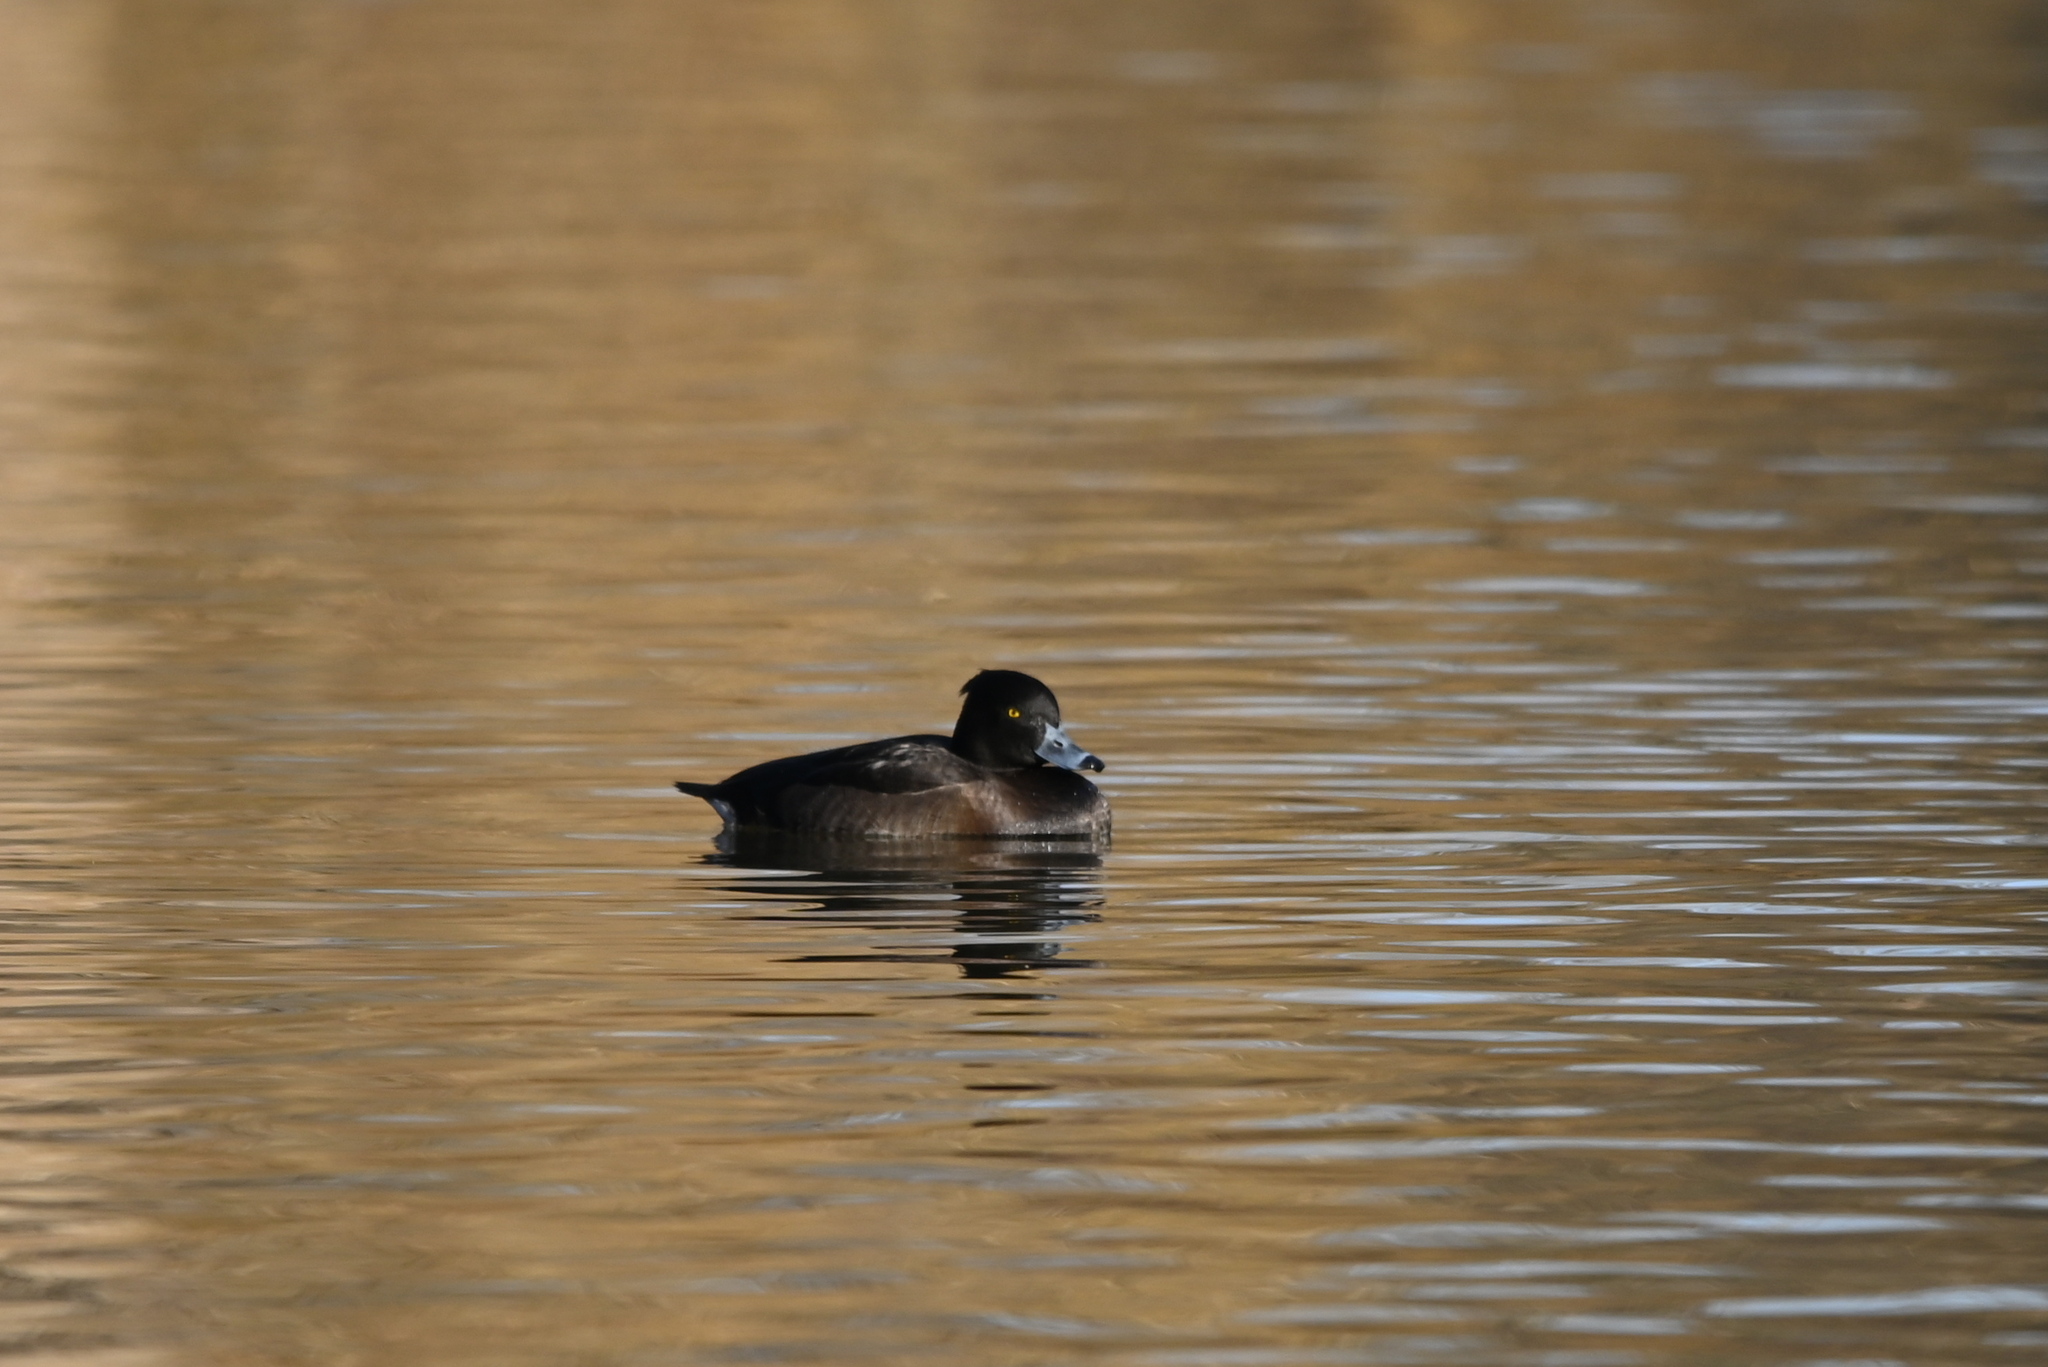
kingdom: Animalia
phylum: Chordata
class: Aves
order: Anseriformes
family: Anatidae
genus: Aythya
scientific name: Aythya fuligula
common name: Tufted duck
